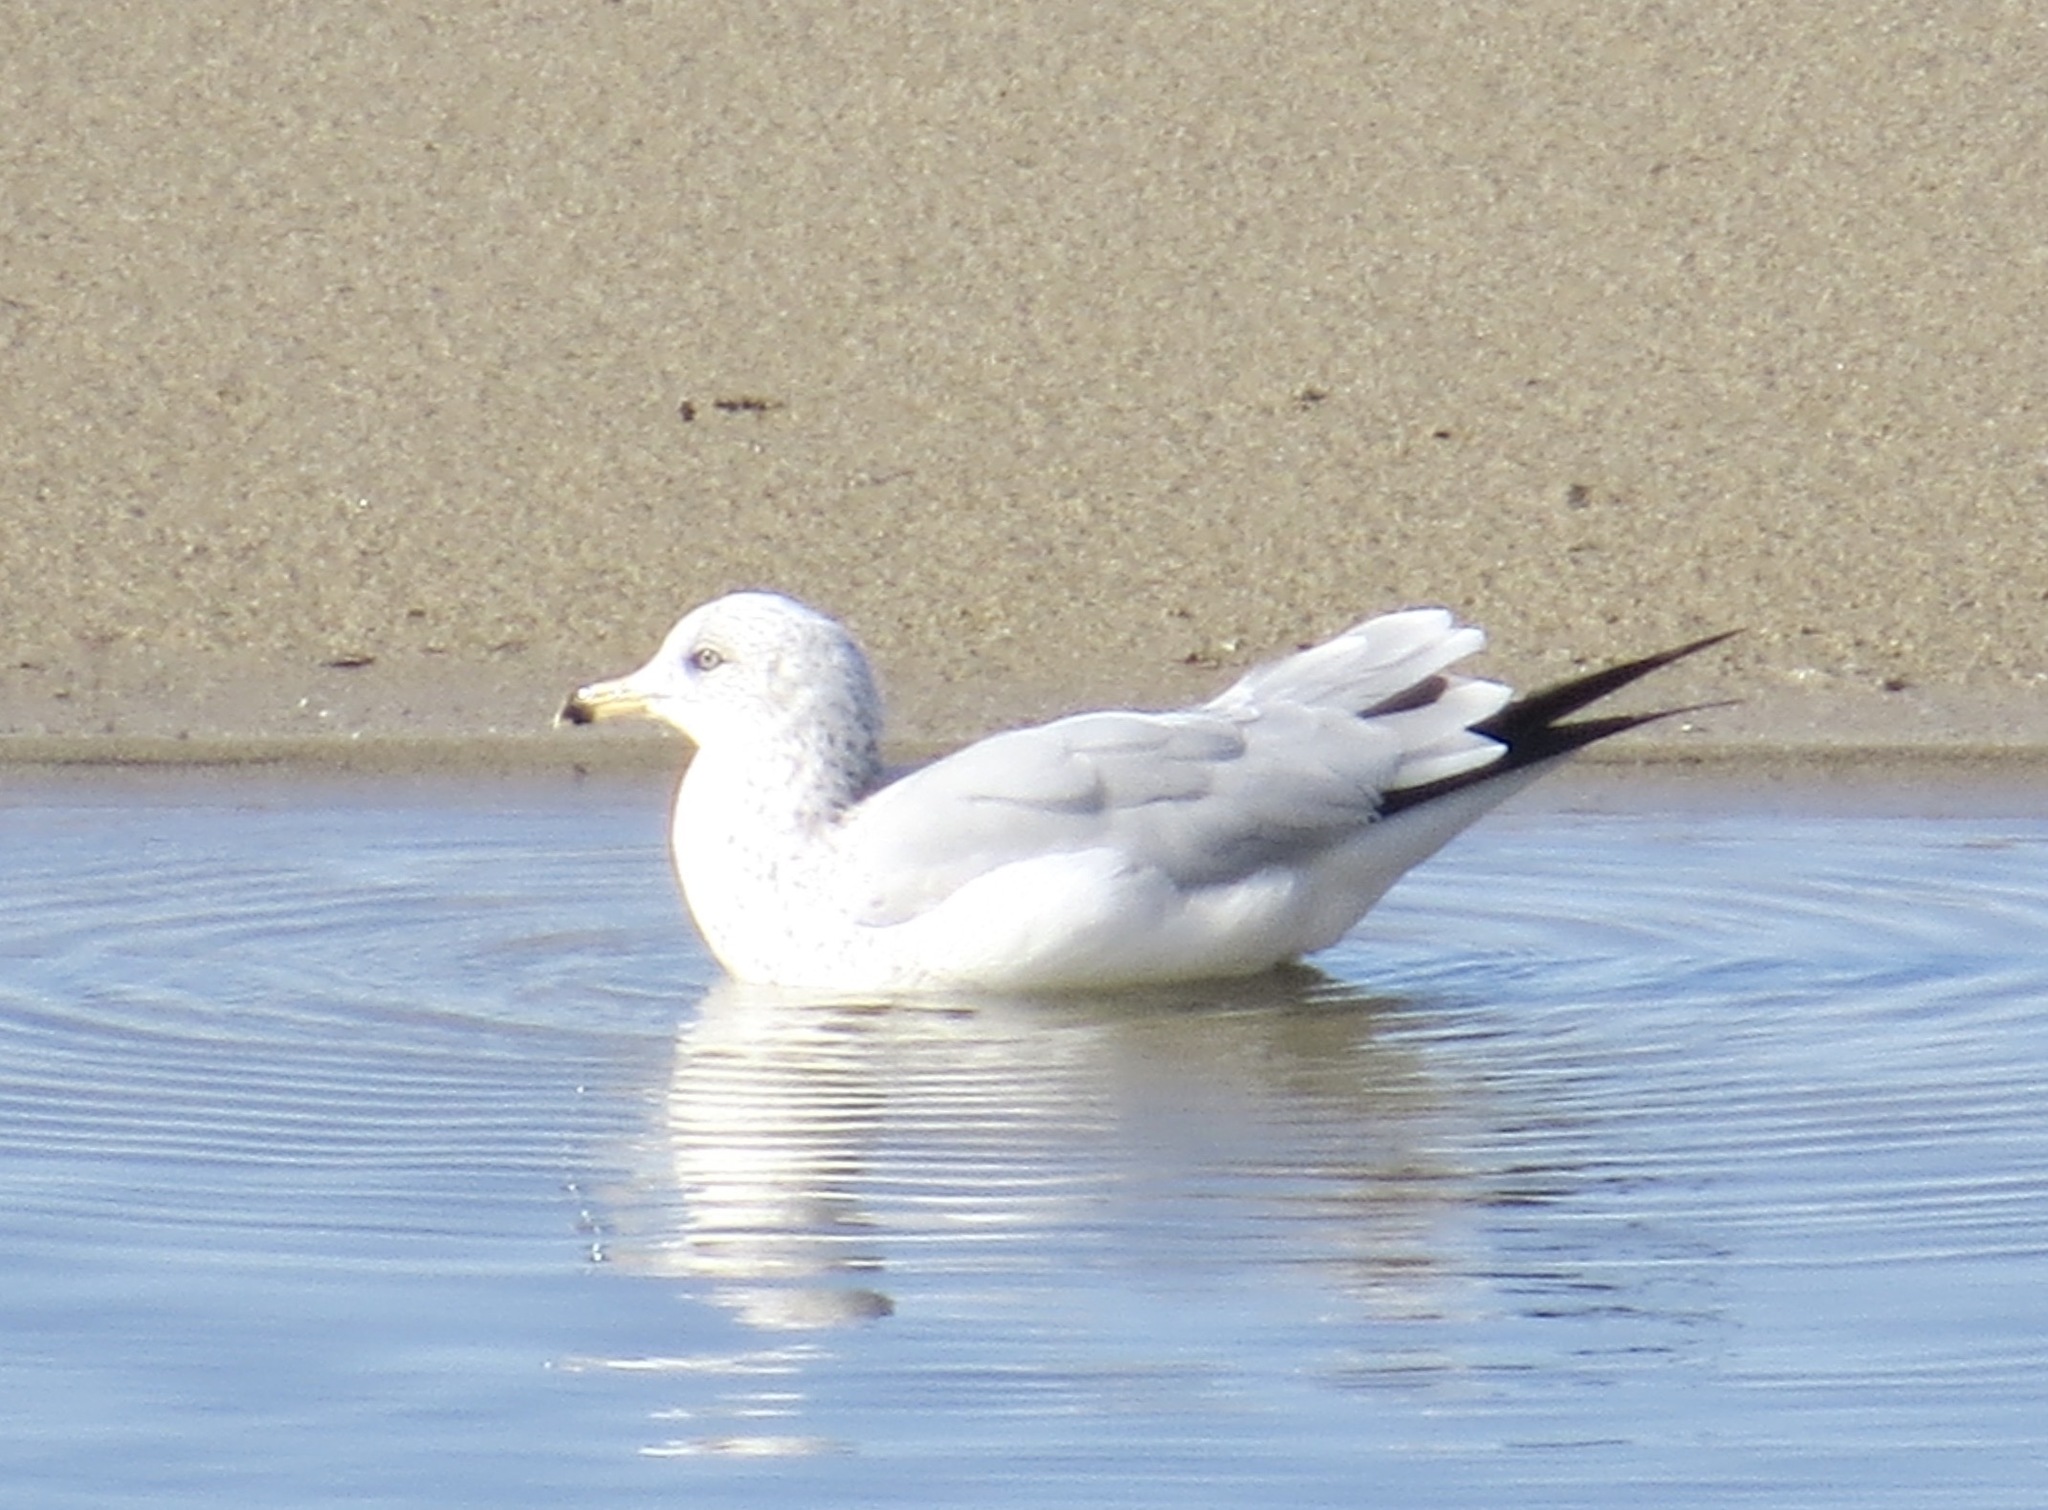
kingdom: Animalia
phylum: Chordata
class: Aves
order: Charadriiformes
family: Laridae
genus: Larus
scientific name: Larus delawarensis
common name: Ring-billed gull
